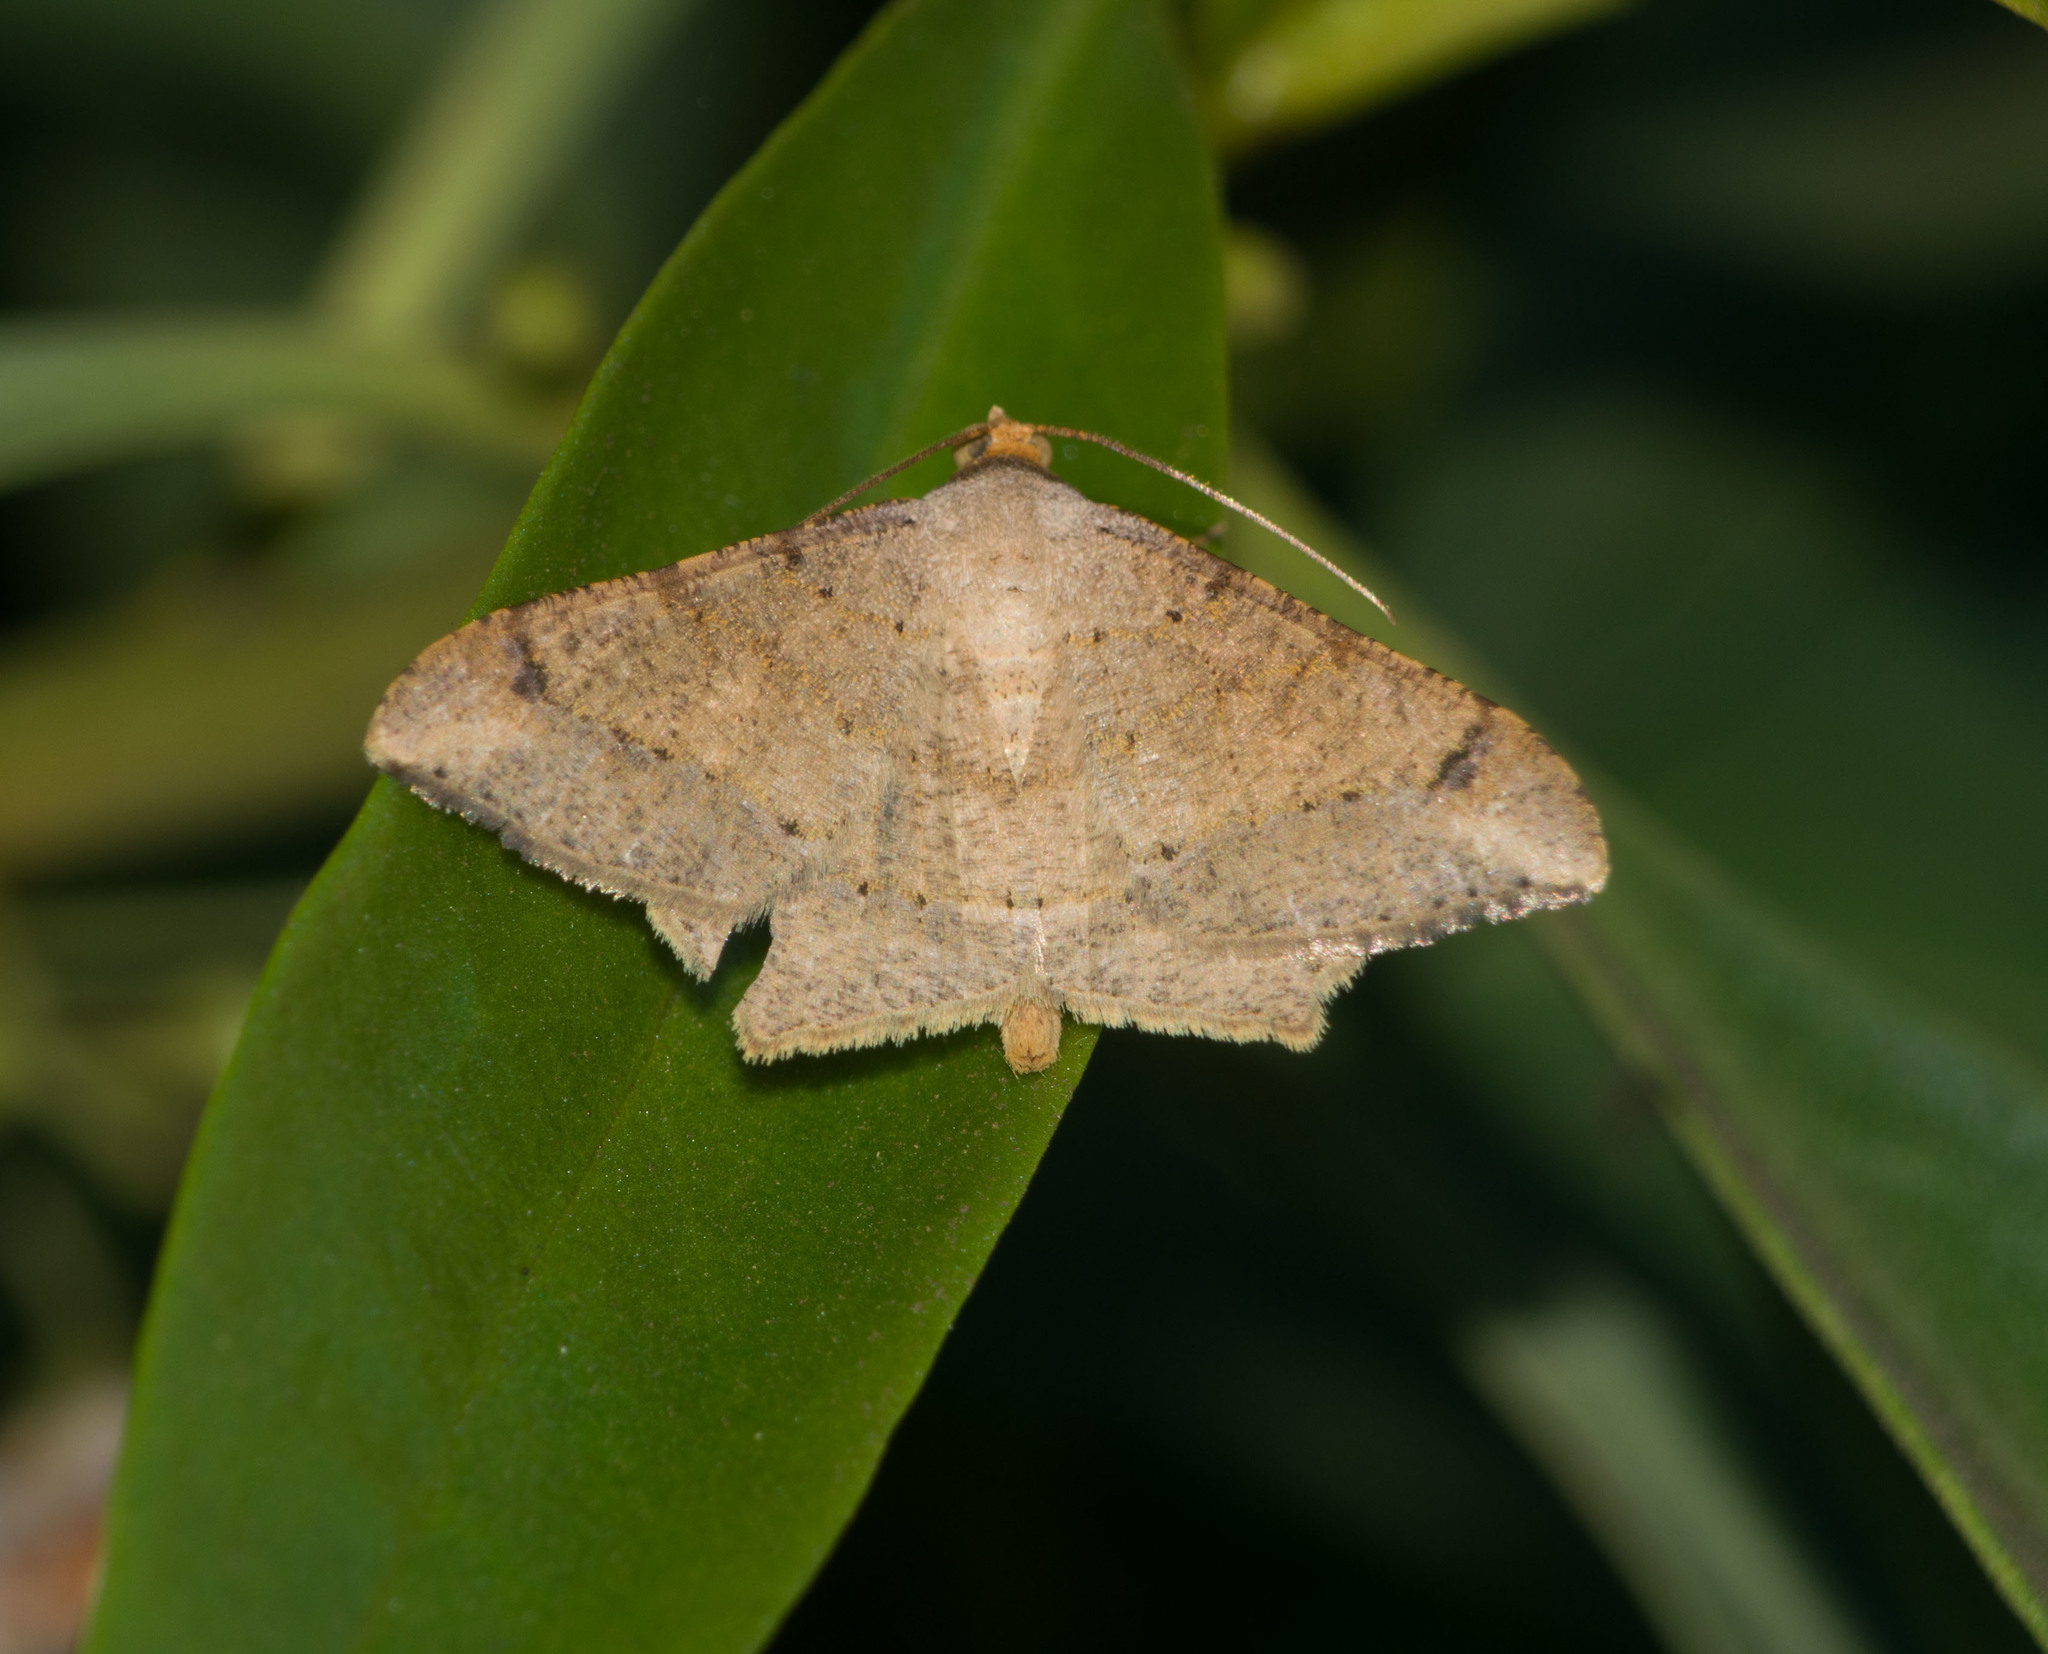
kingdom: Animalia
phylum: Arthropoda
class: Insecta
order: Lepidoptera
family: Geometridae
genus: Macaria
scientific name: Macaria abydata
